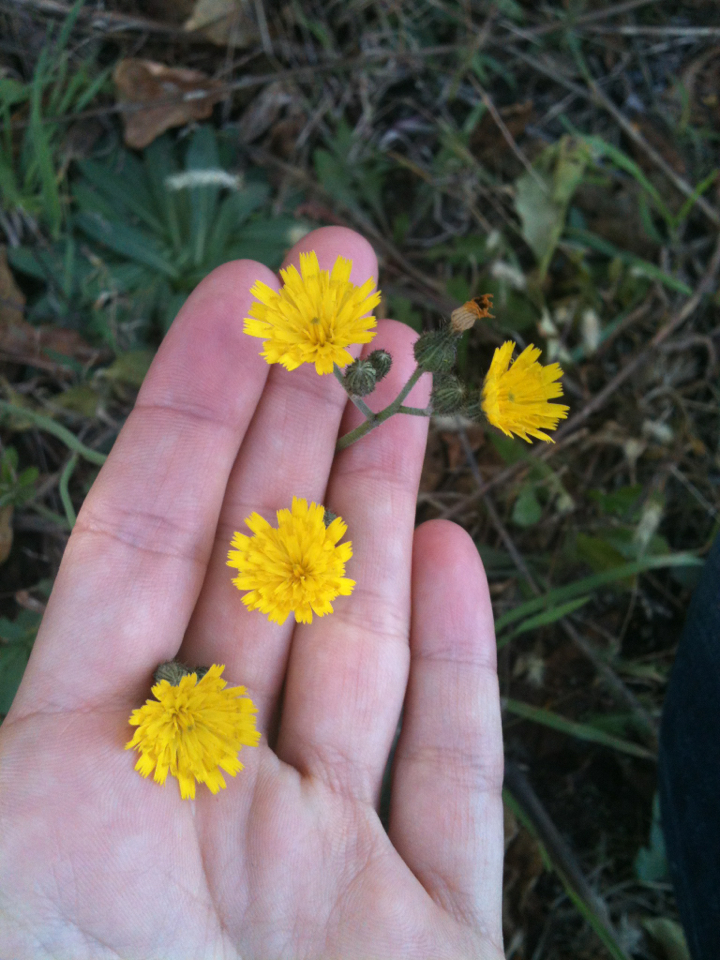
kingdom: Plantae
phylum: Tracheophyta
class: Magnoliopsida
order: Asterales
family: Asteraceae
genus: Pilosella
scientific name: Pilosella caespitosa
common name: Yellow fox-and-cubs
